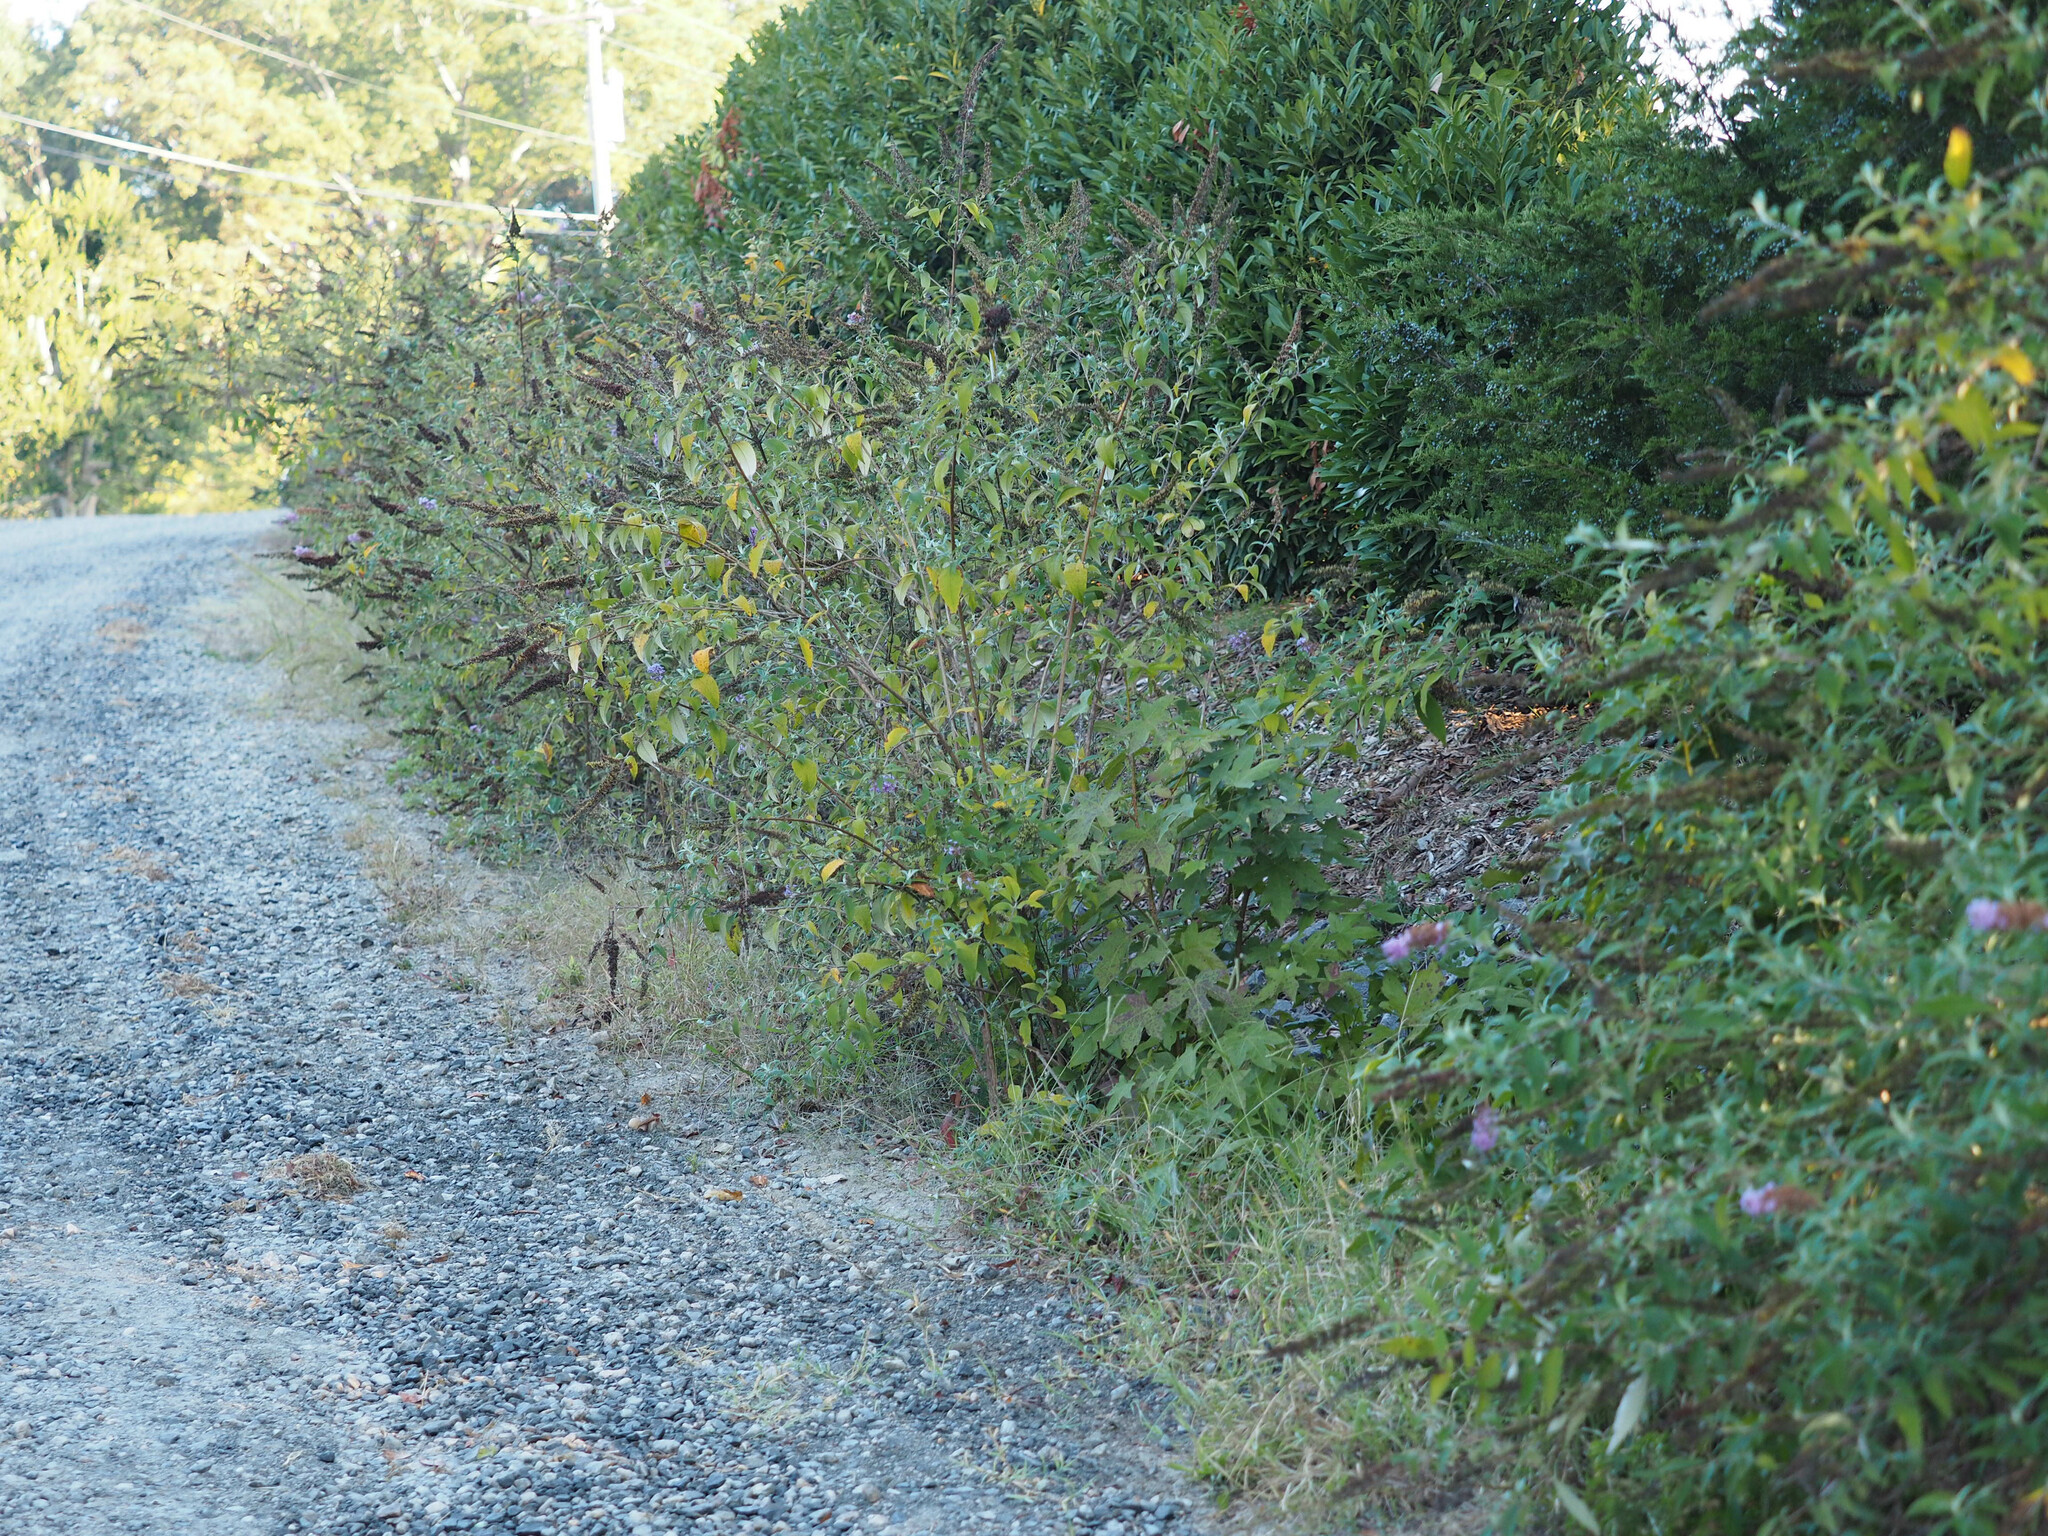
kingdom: Plantae
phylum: Tracheophyta
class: Magnoliopsida
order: Lamiales
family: Scrophulariaceae
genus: Buddleja
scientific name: Buddleja davidii
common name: Butterfly-bush
